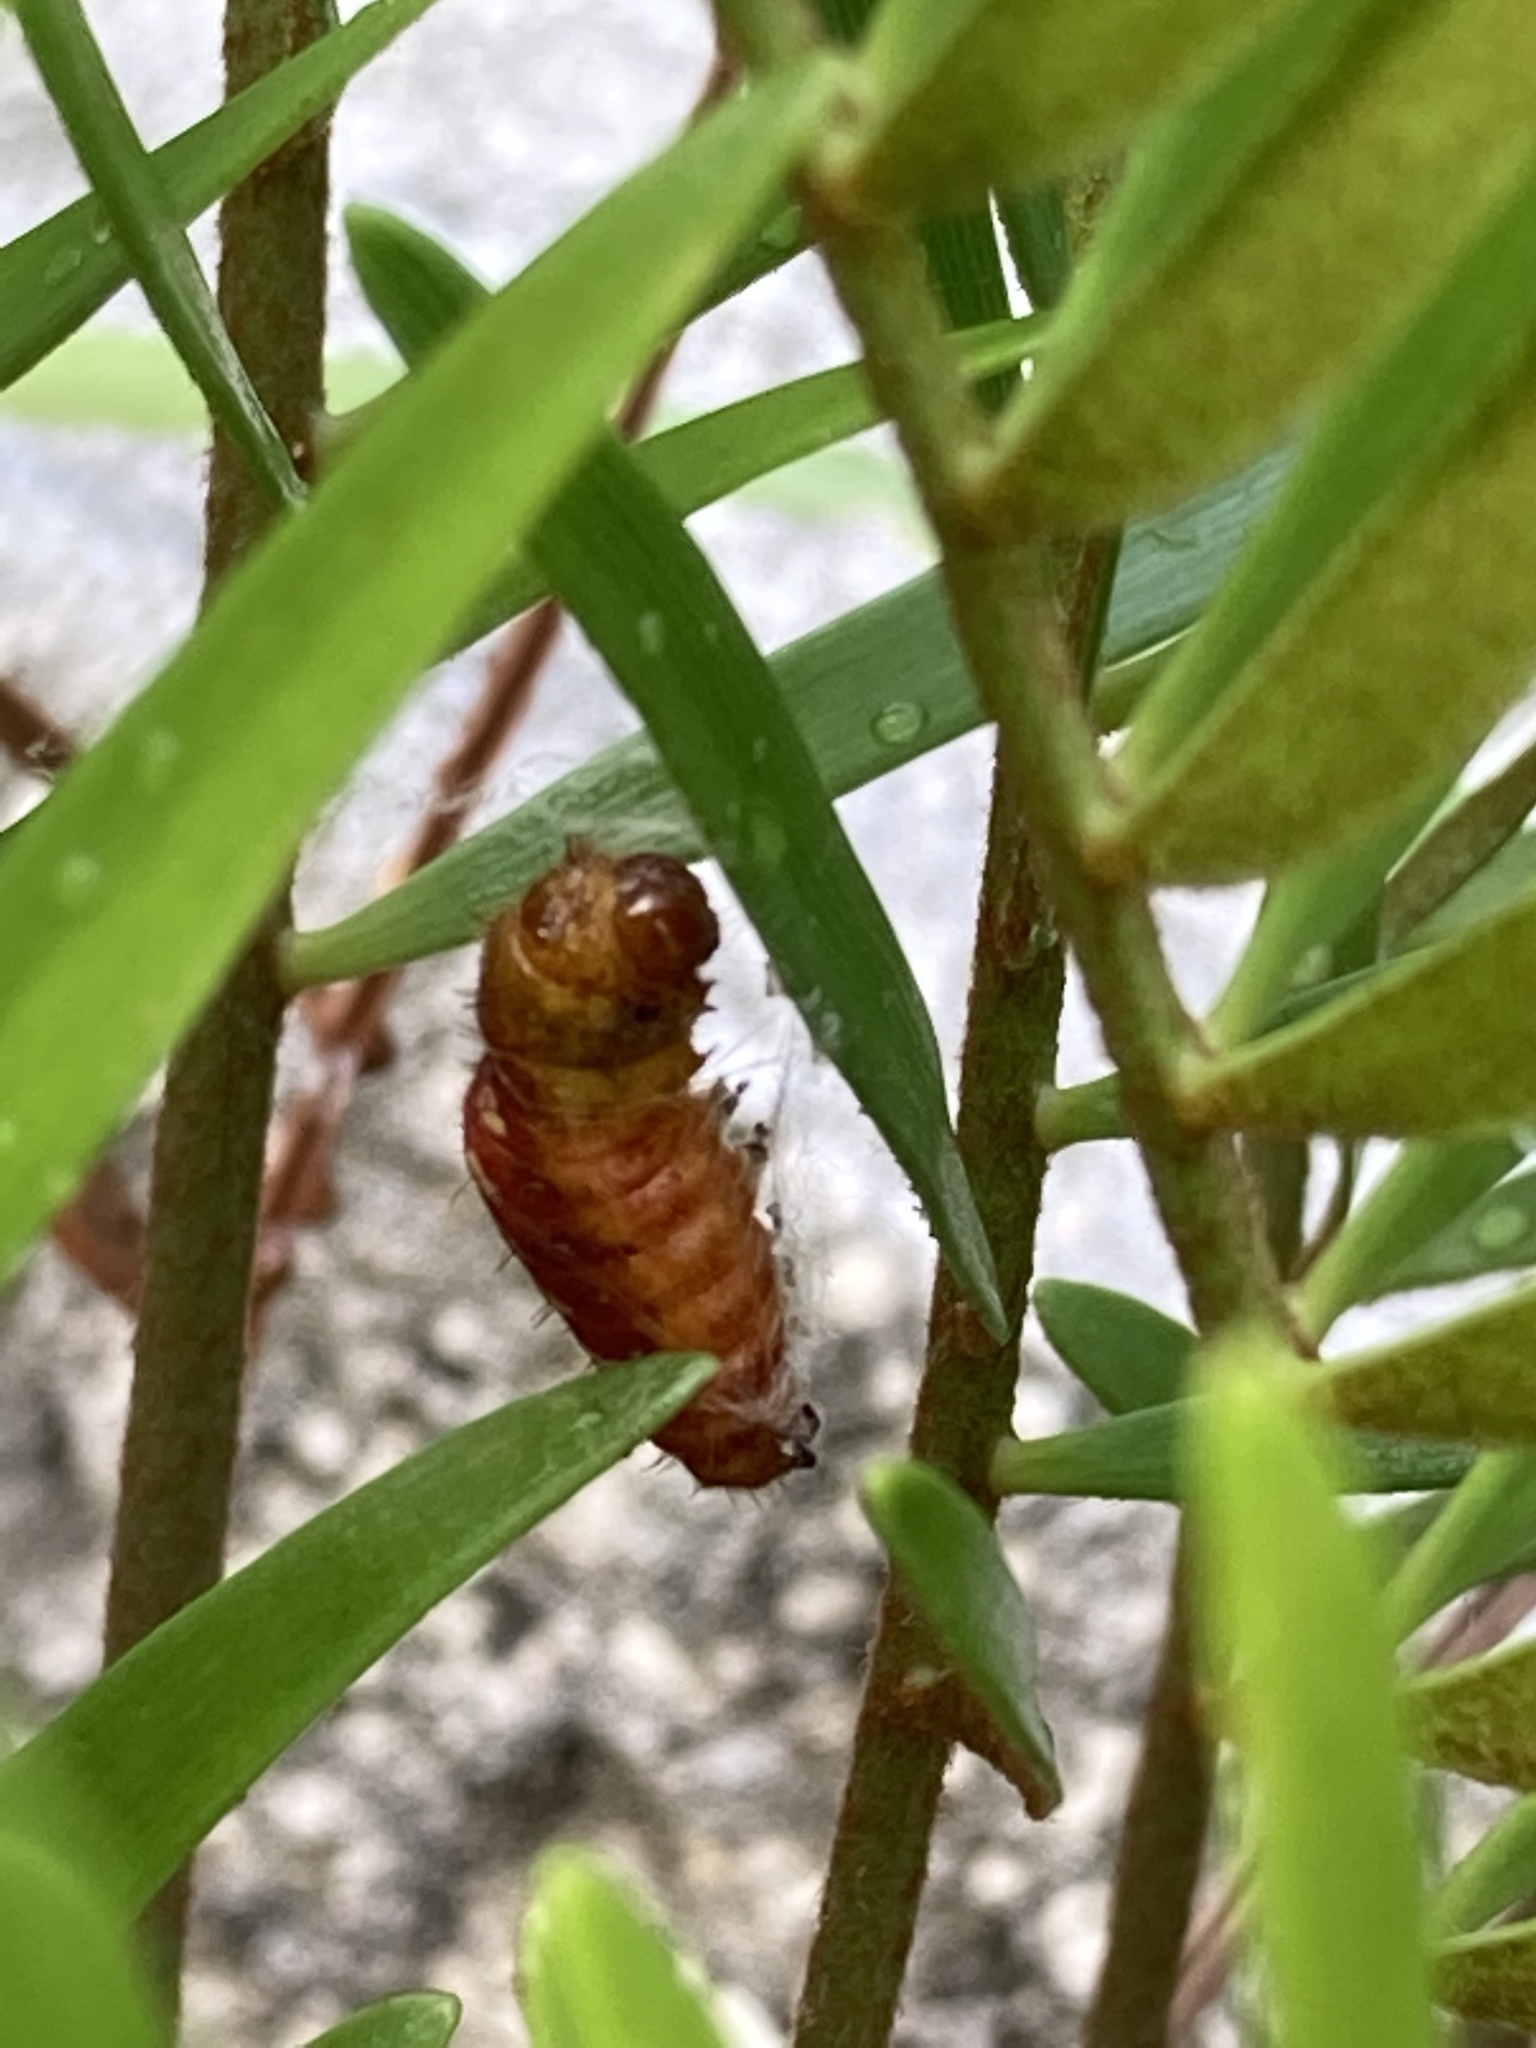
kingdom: Animalia
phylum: Arthropoda
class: Insecta
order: Lepidoptera
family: Lycaenidae
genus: Eumaeus
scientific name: Eumaeus atala
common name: Atala
